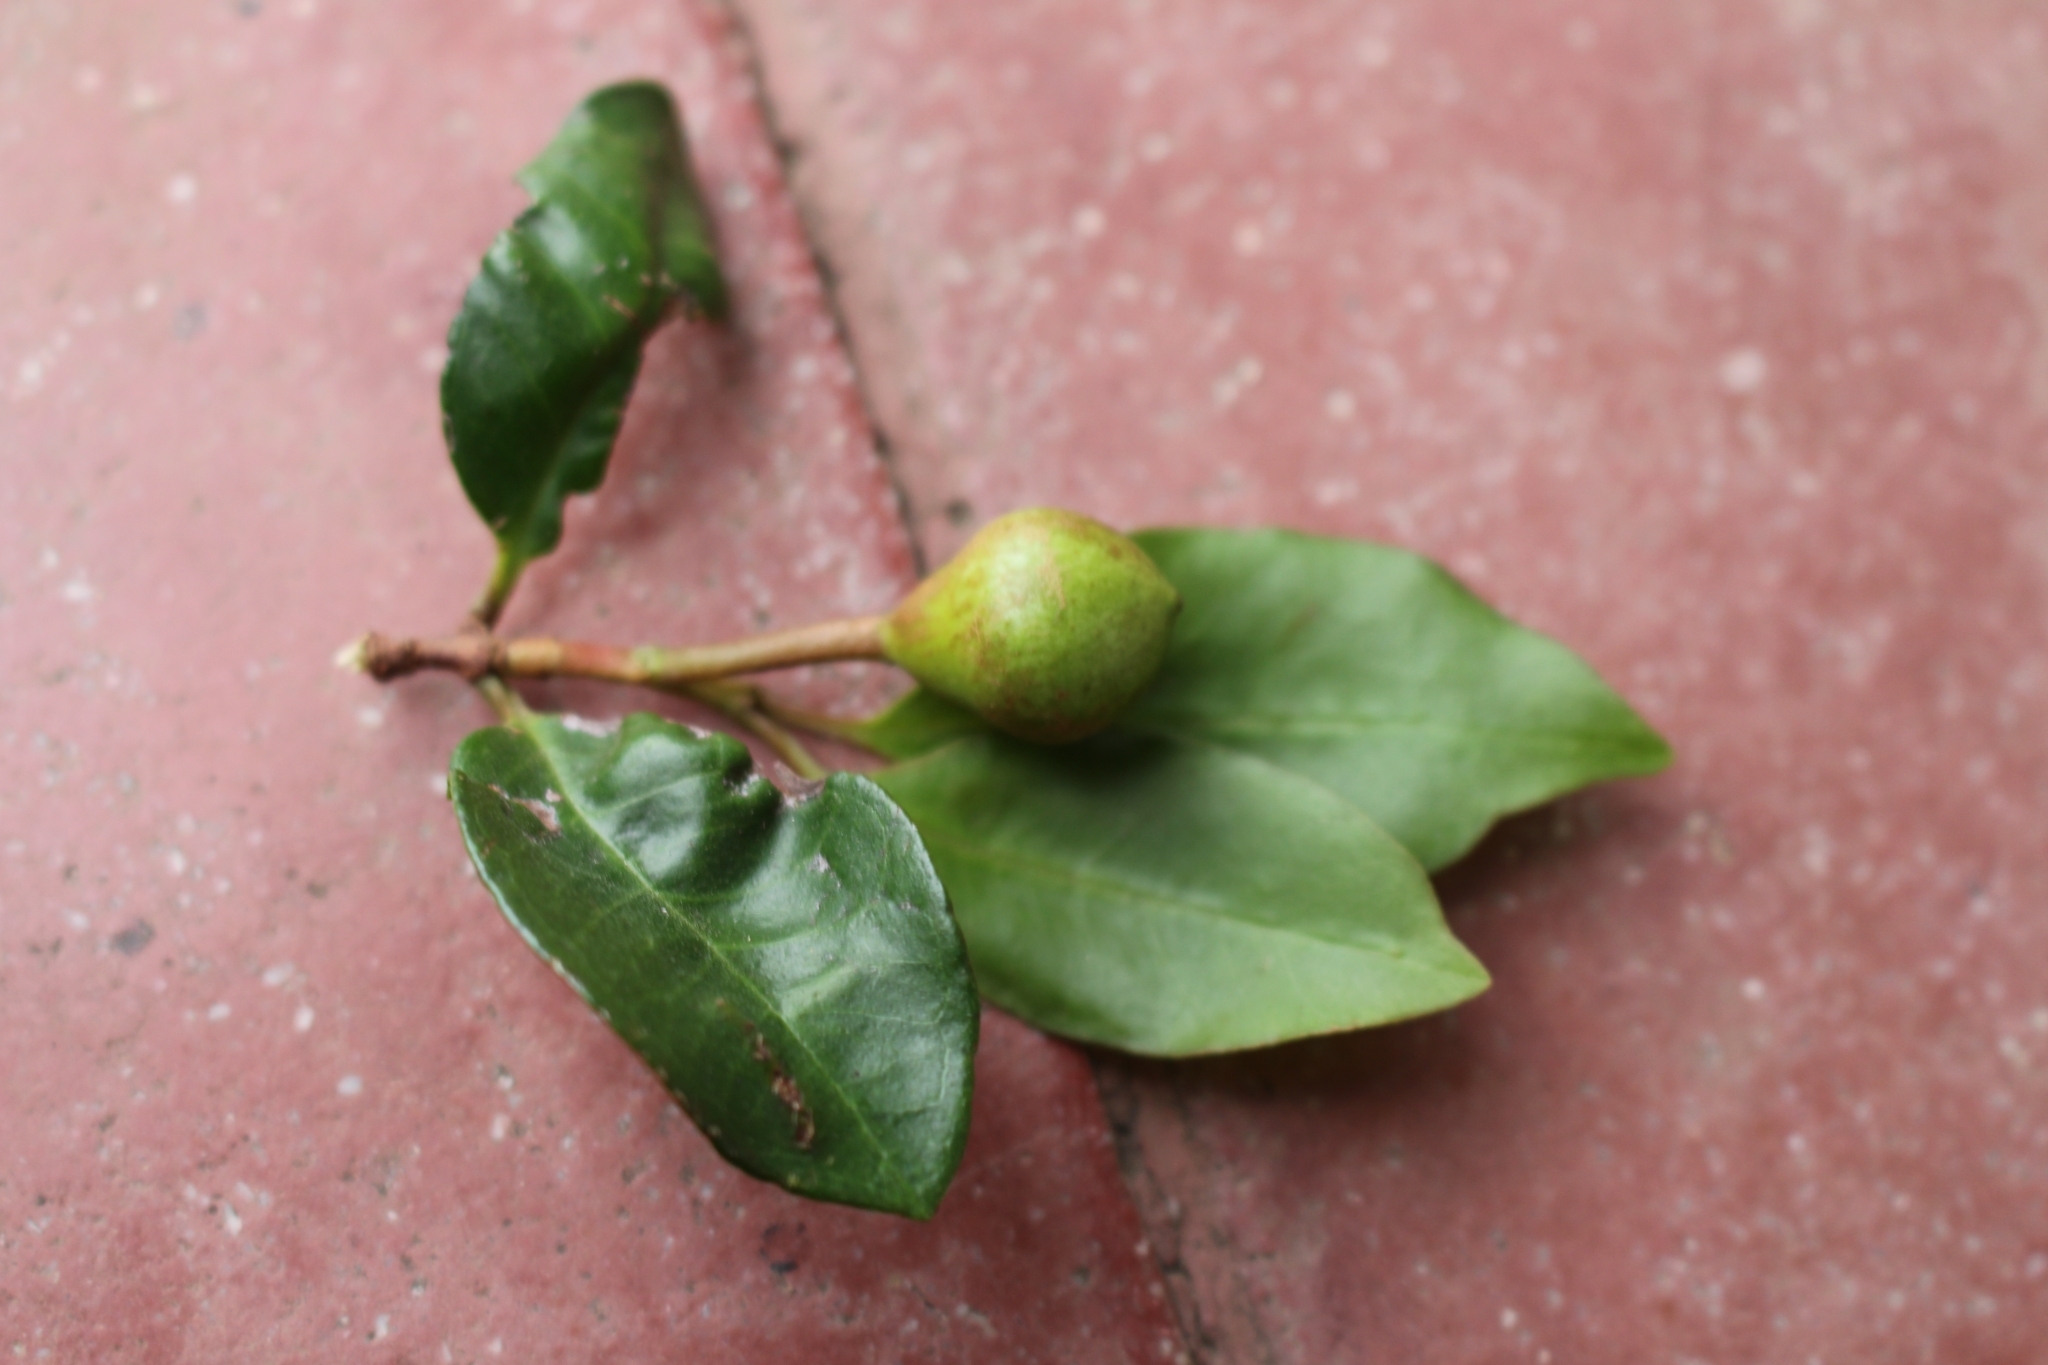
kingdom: Plantae
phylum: Tracheophyta
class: Magnoliopsida
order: Myrtales
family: Myrtaceae
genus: Psidium
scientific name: Psidium friedrichsthalianum
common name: Costa rican guava
